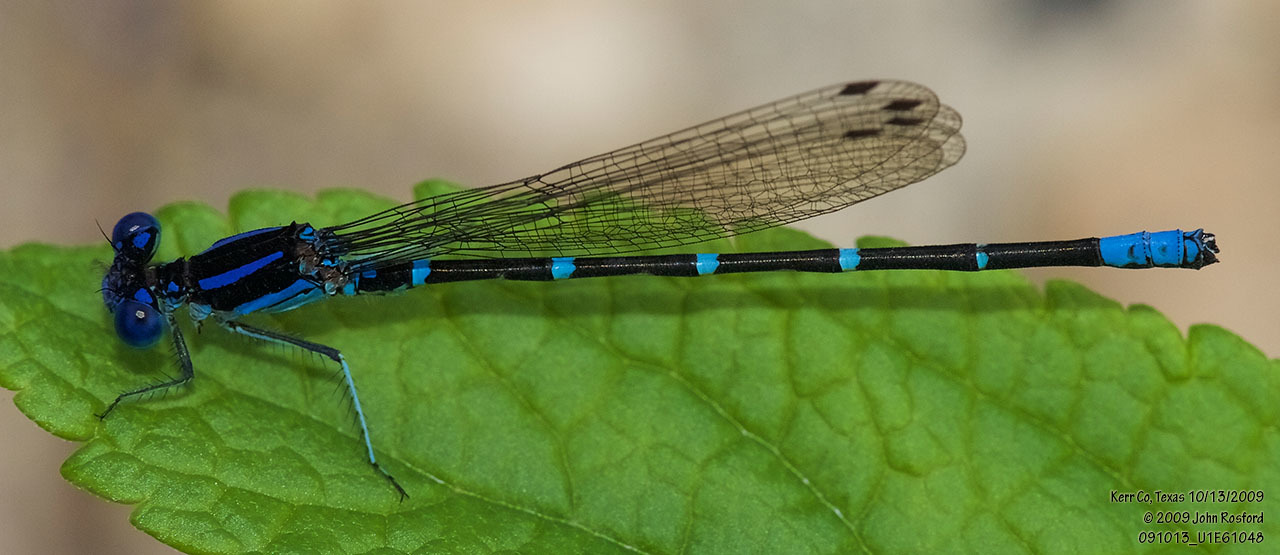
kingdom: Animalia
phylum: Arthropoda
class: Insecta
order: Odonata
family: Coenagrionidae
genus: Argia
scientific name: Argia sedula
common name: Blue-ringed dancer
